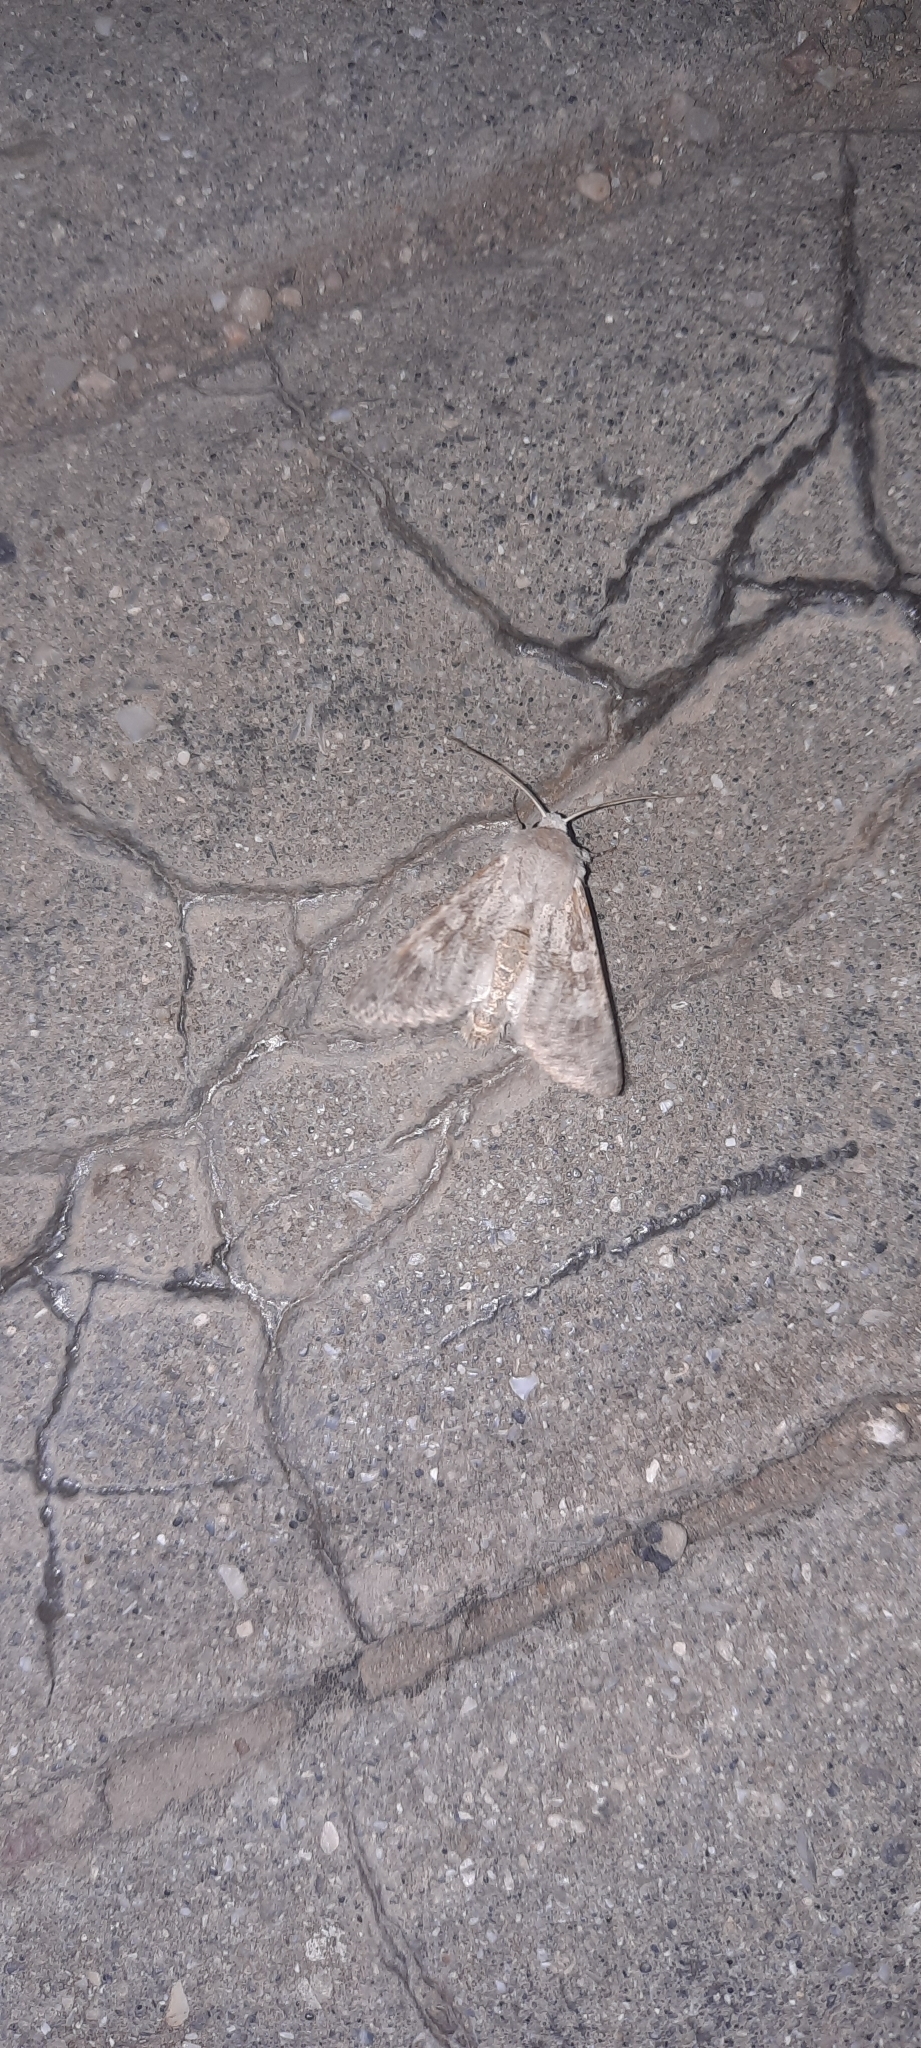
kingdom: Animalia
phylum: Arthropoda
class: Insecta
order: Lepidoptera
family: Noctuidae
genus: Aporophyla
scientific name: Aporophyla canescens
